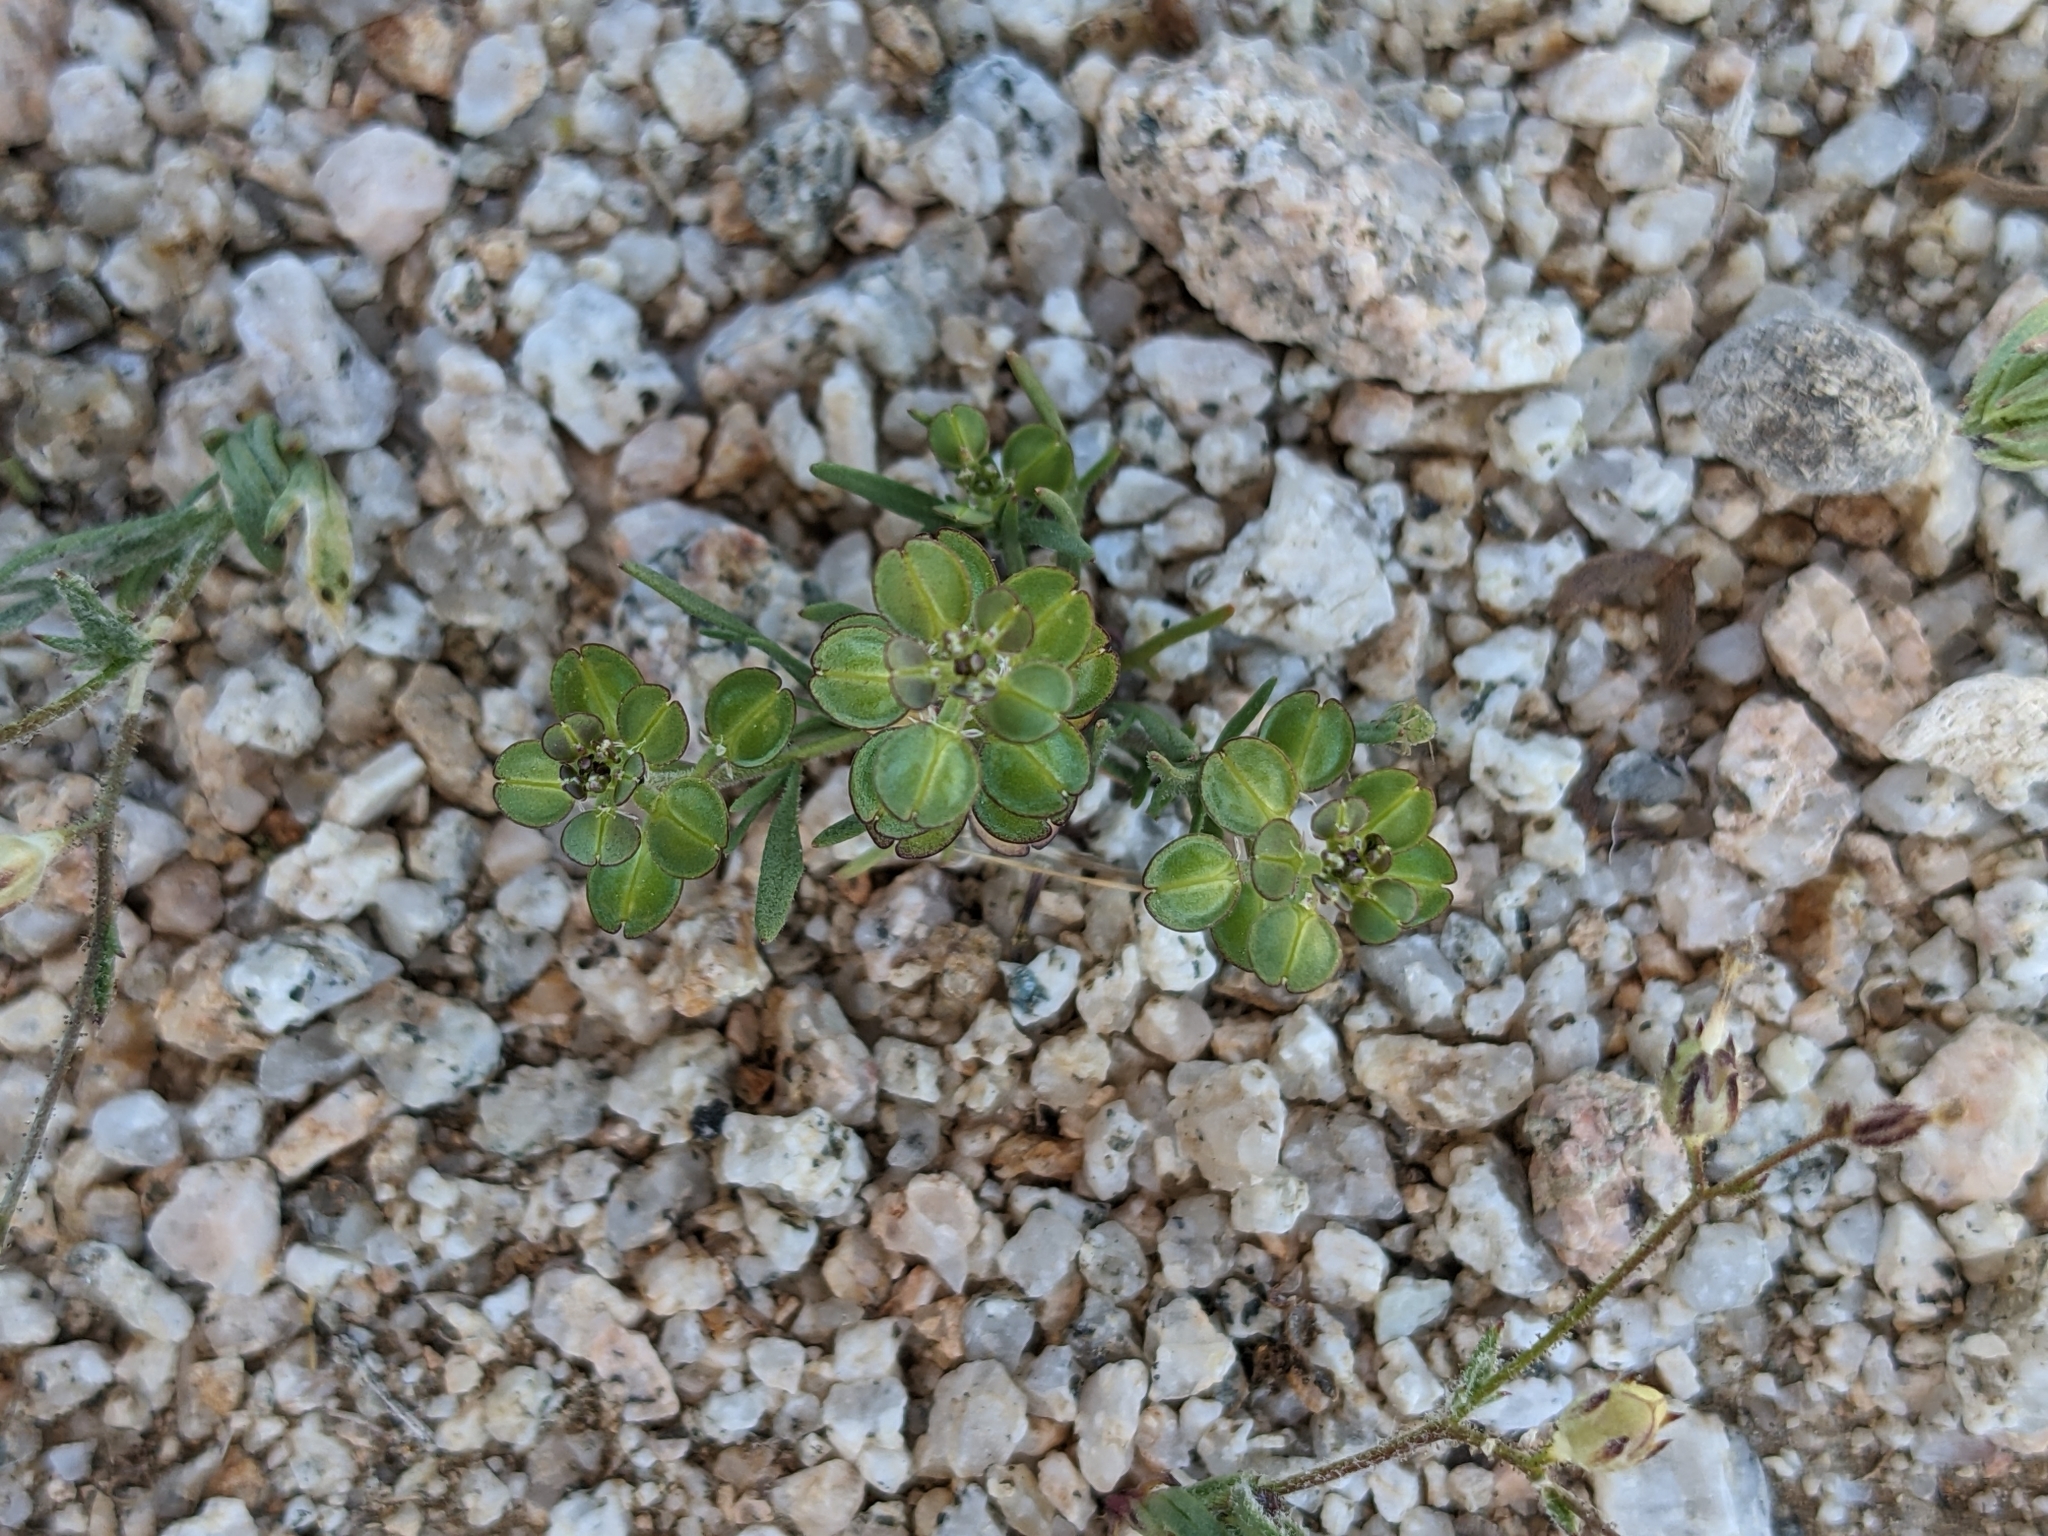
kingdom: Plantae
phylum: Tracheophyta
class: Magnoliopsida
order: Brassicales
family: Brassicaceae
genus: Lepidium
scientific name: Lepidium nitidum
